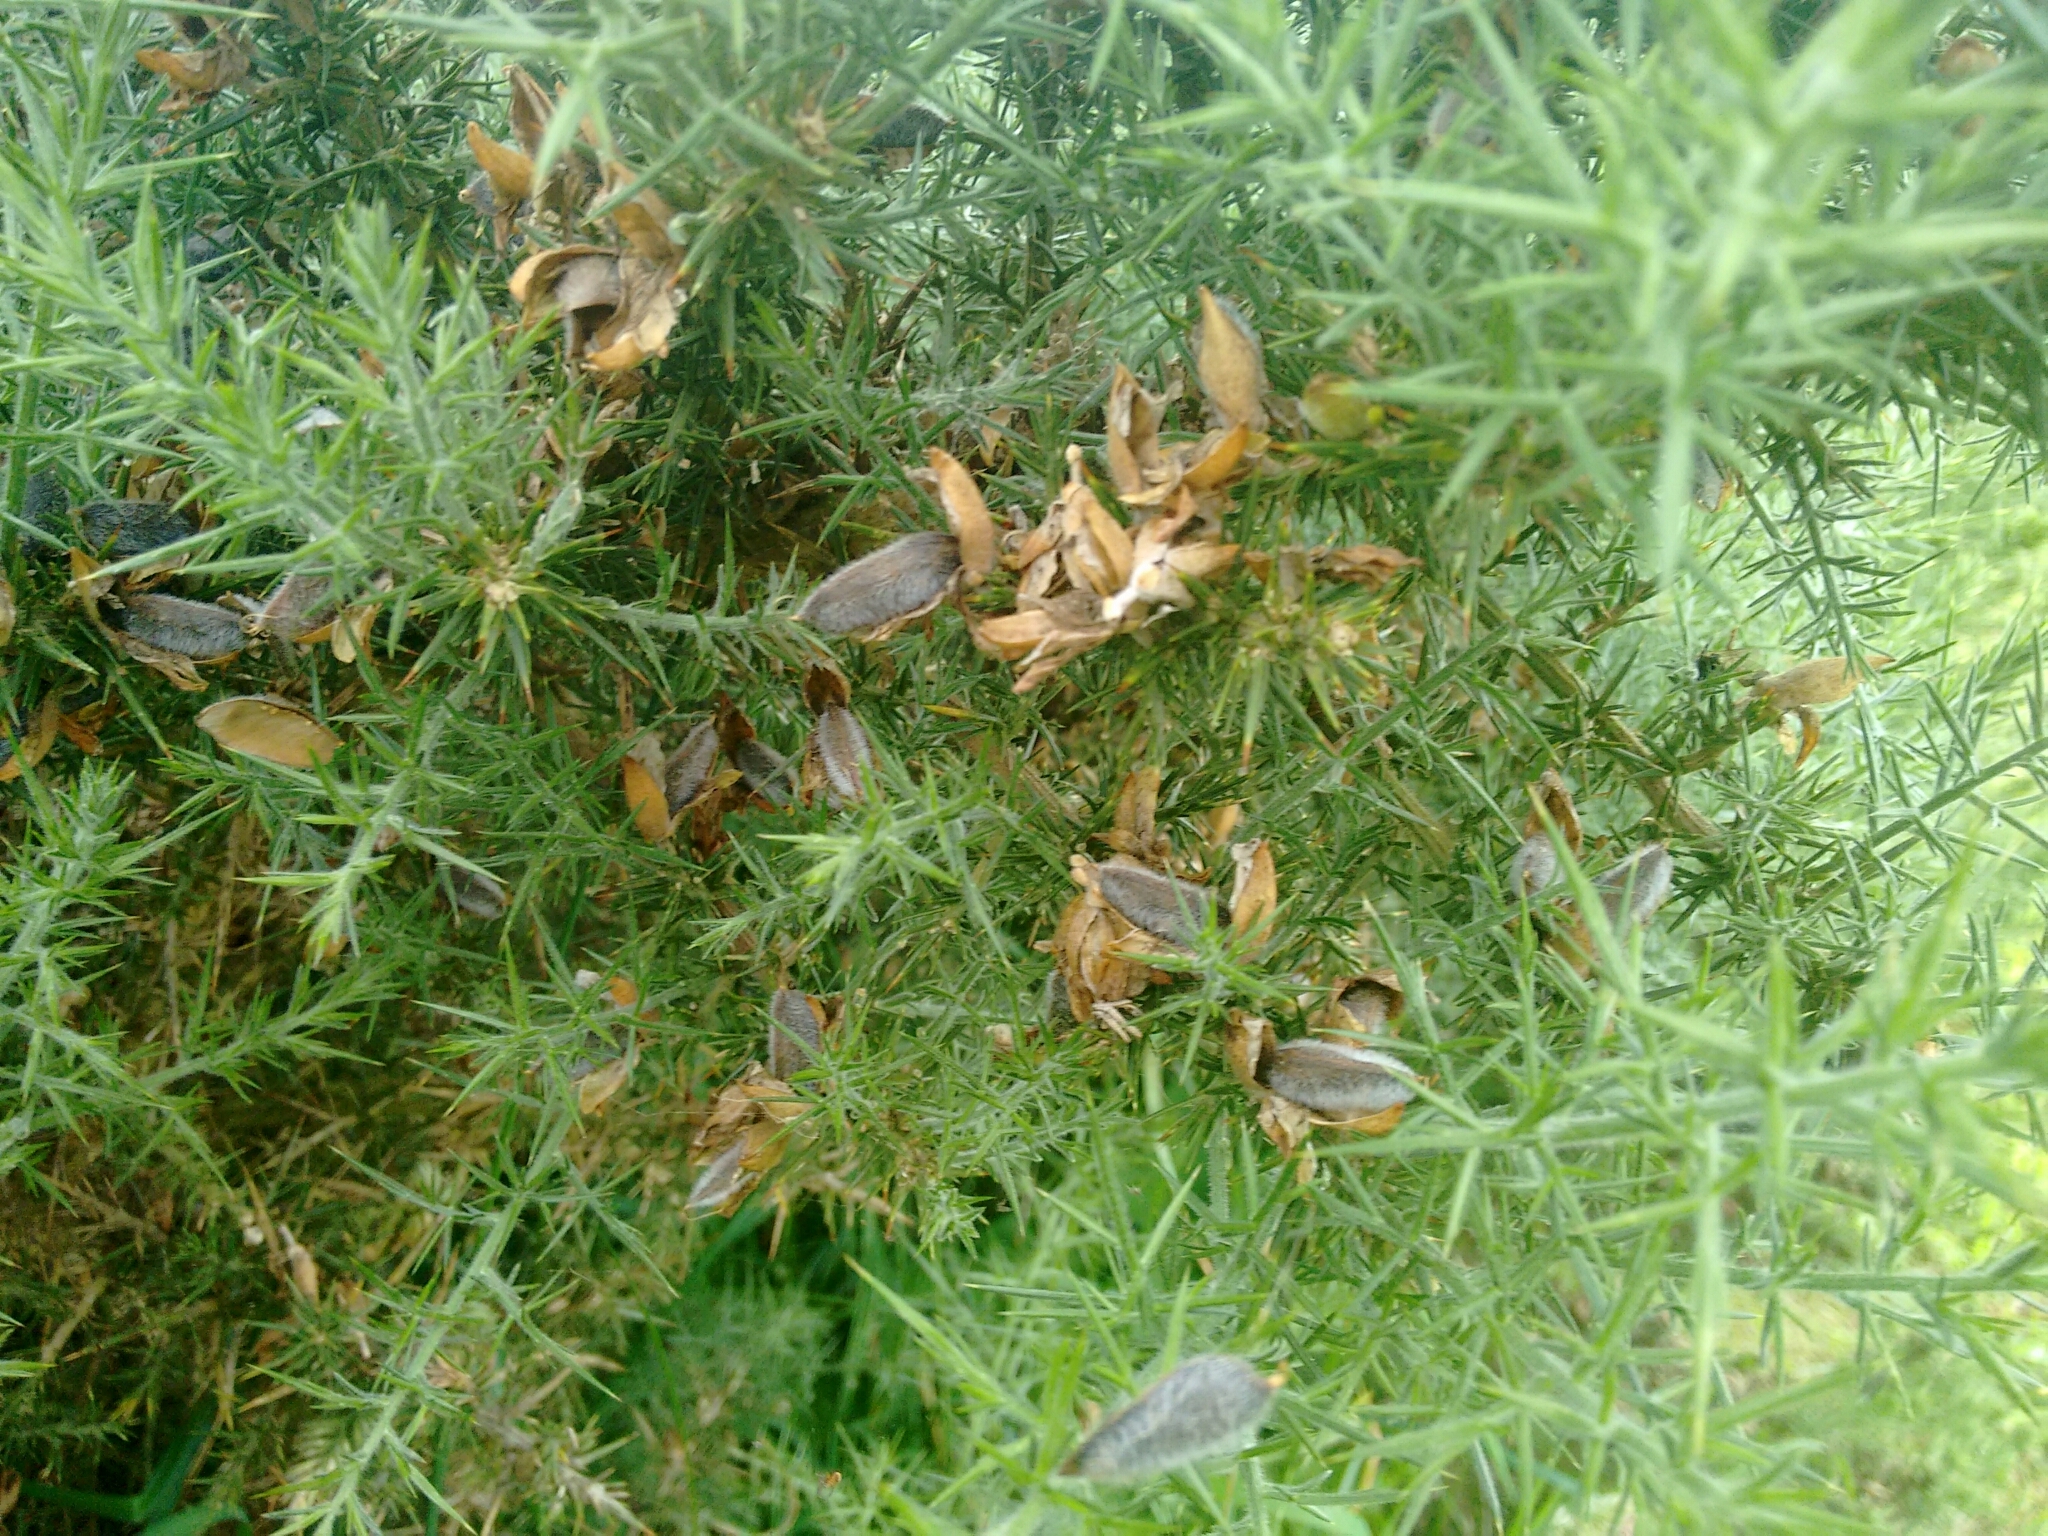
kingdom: Plantae
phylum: Tracheophyta
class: Magnoliopsida
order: Fabales
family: Fabaceae
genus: Ulex
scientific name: Ulex europaeus
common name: Common gorse
